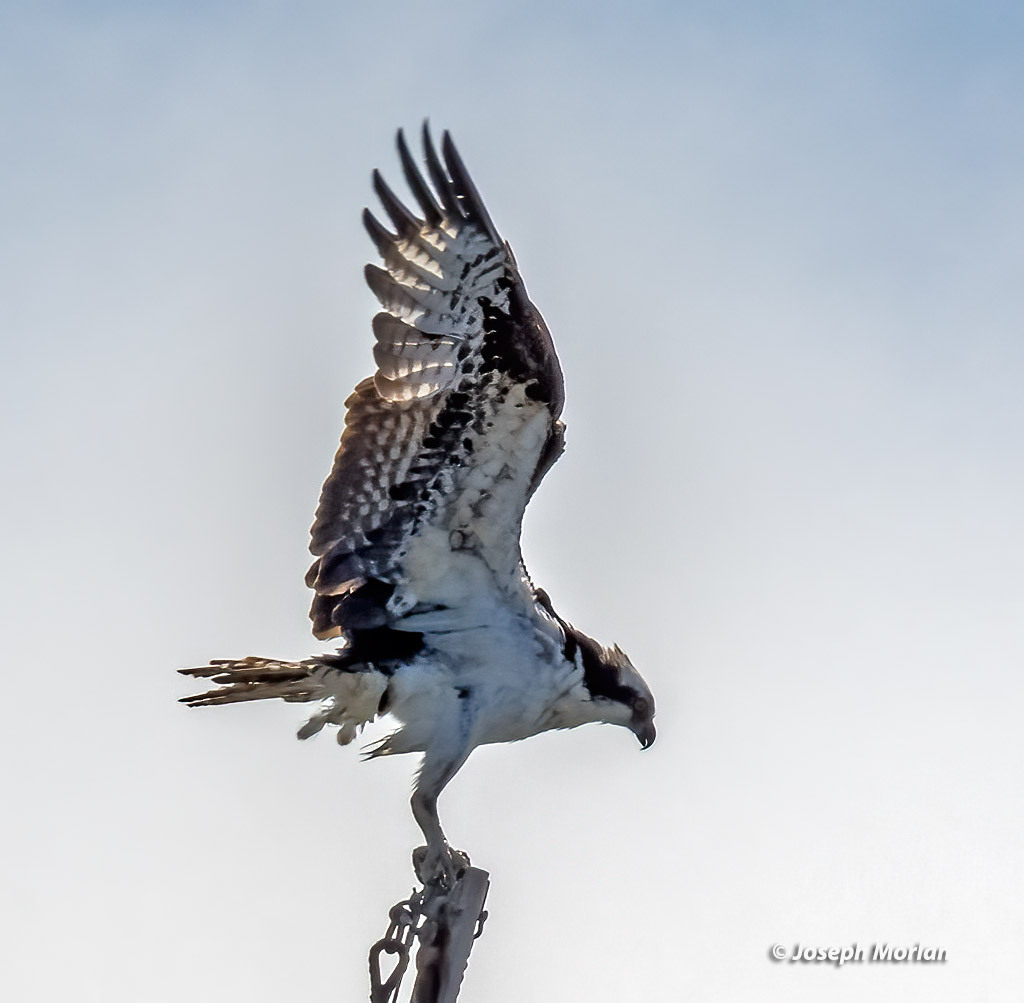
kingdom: Animalia
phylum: Chordata
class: Aves
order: Accipitriformes
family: Pandionidae
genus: Pandion
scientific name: Pandion haliaetus
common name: Osprey
